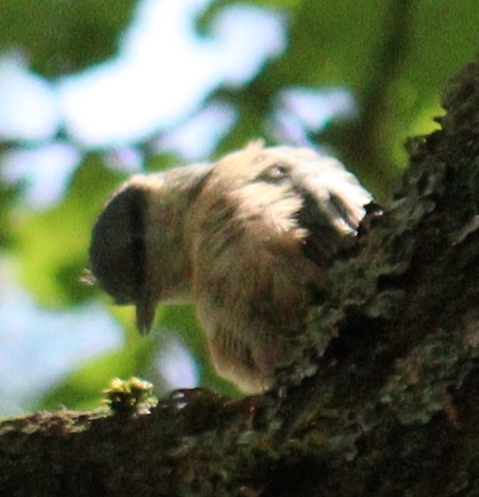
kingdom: Animalia
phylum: Chordata
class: Aves
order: Passeriformes
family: Sittidae
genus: Sitta
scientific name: Sitta europaea
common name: Eurasian nuthatch
